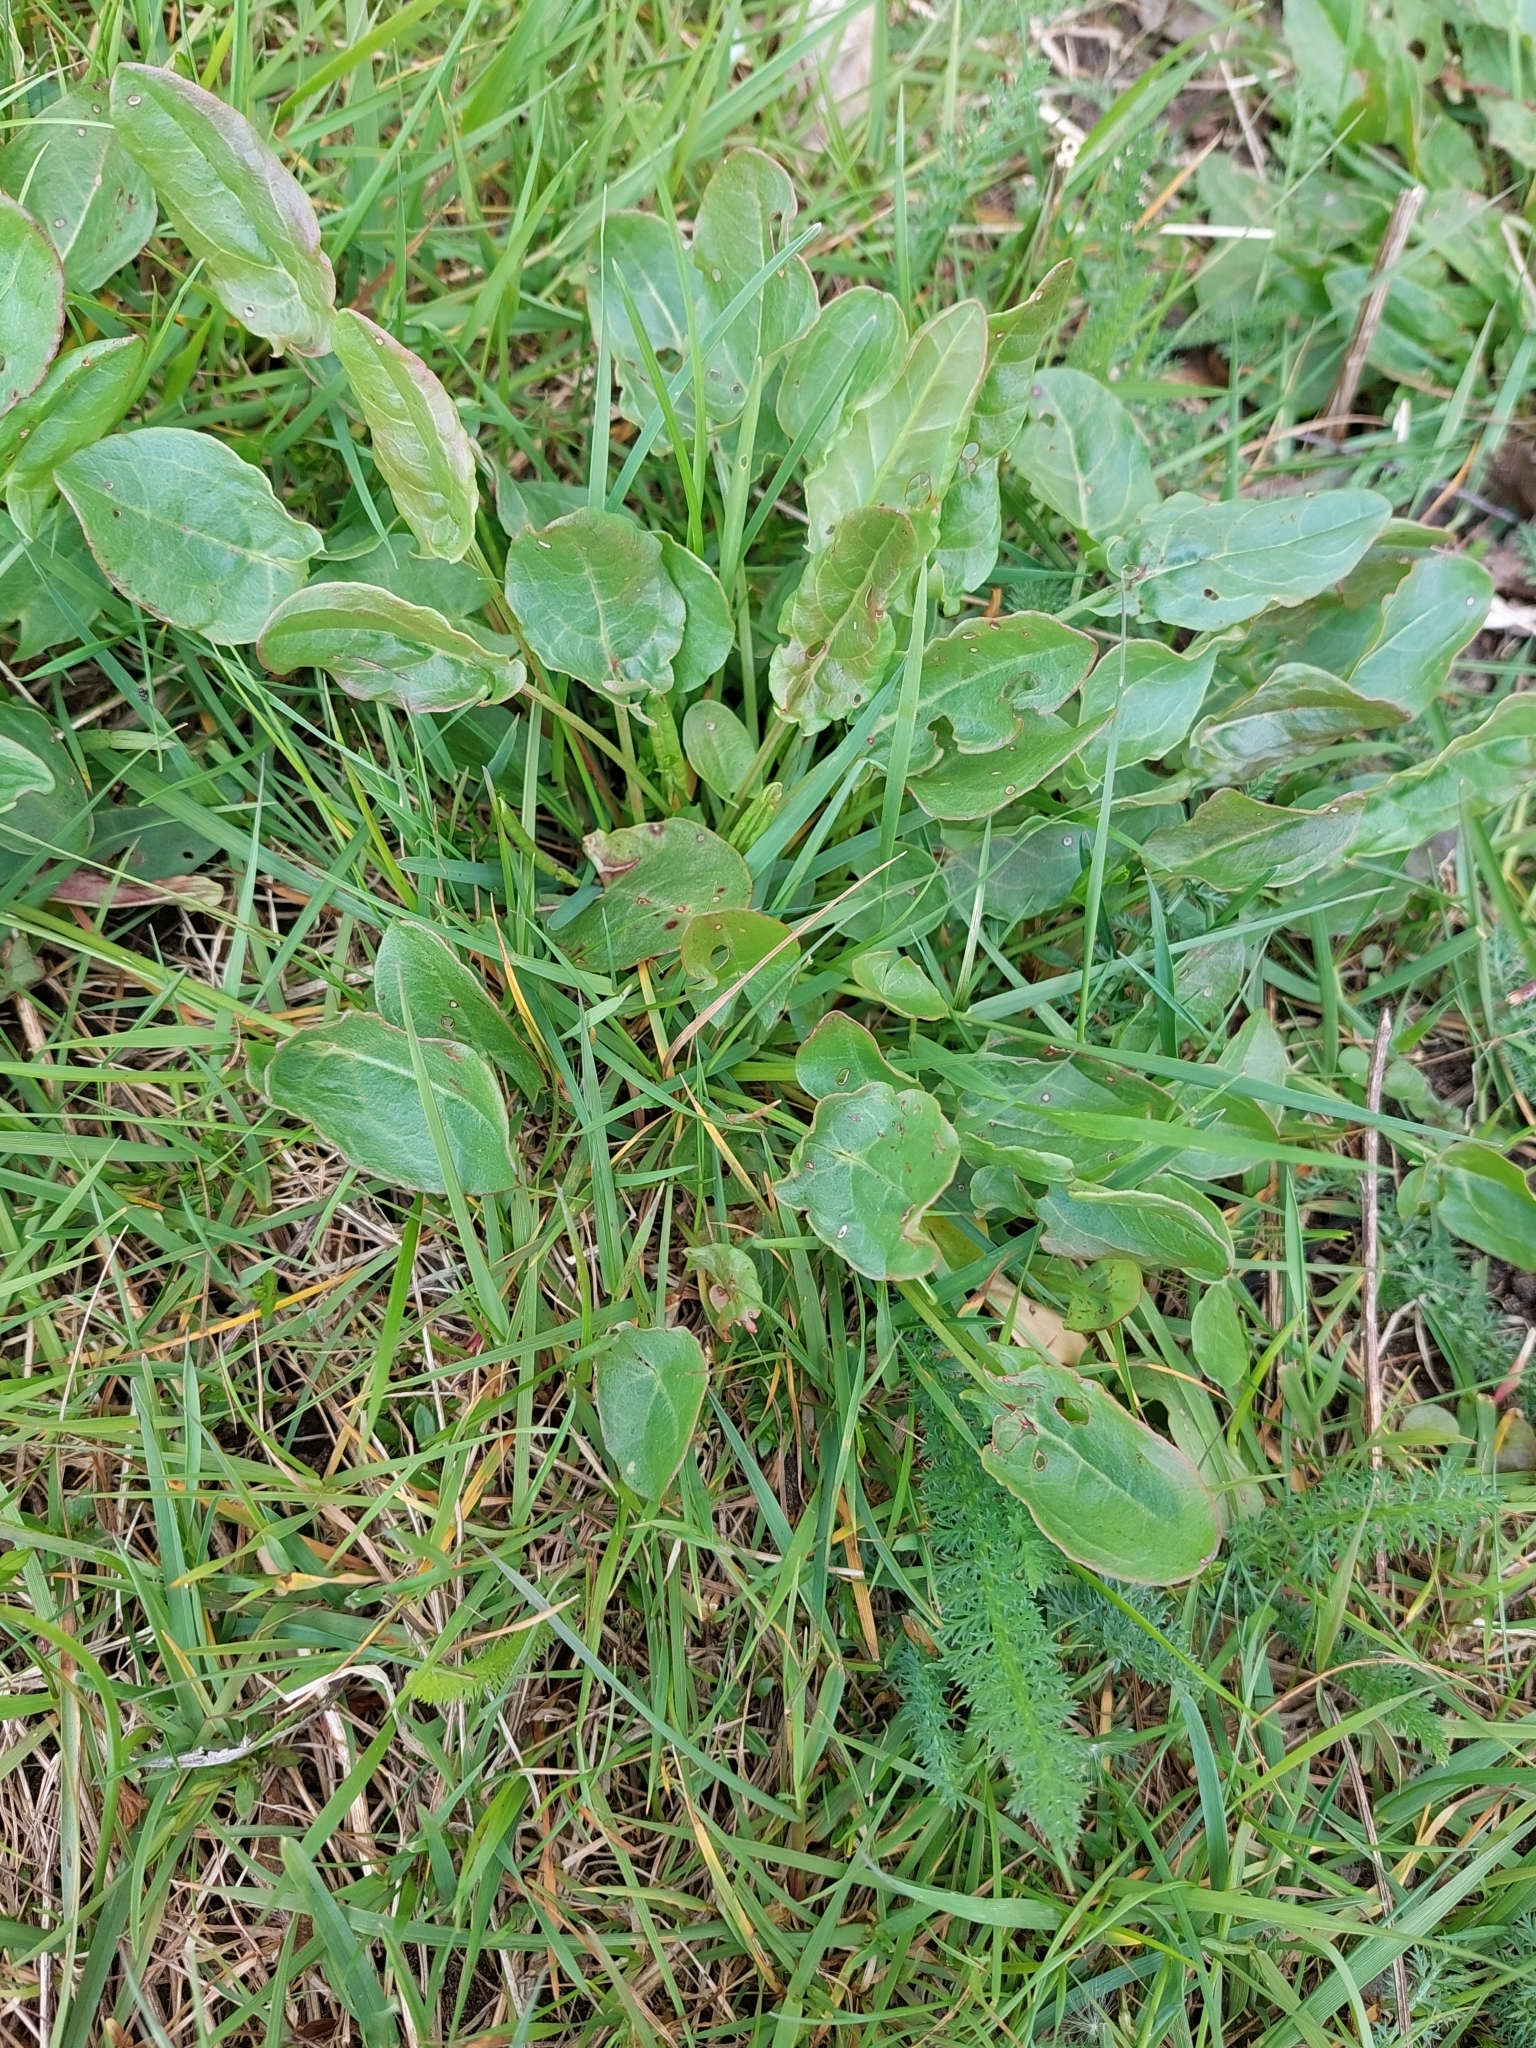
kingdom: Plantae
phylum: Tracheophyta
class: Magnoliopsida
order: Caryophyllales
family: Polygonaceae
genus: Rumex
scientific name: Rumex acetosa
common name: Garden sorrel
